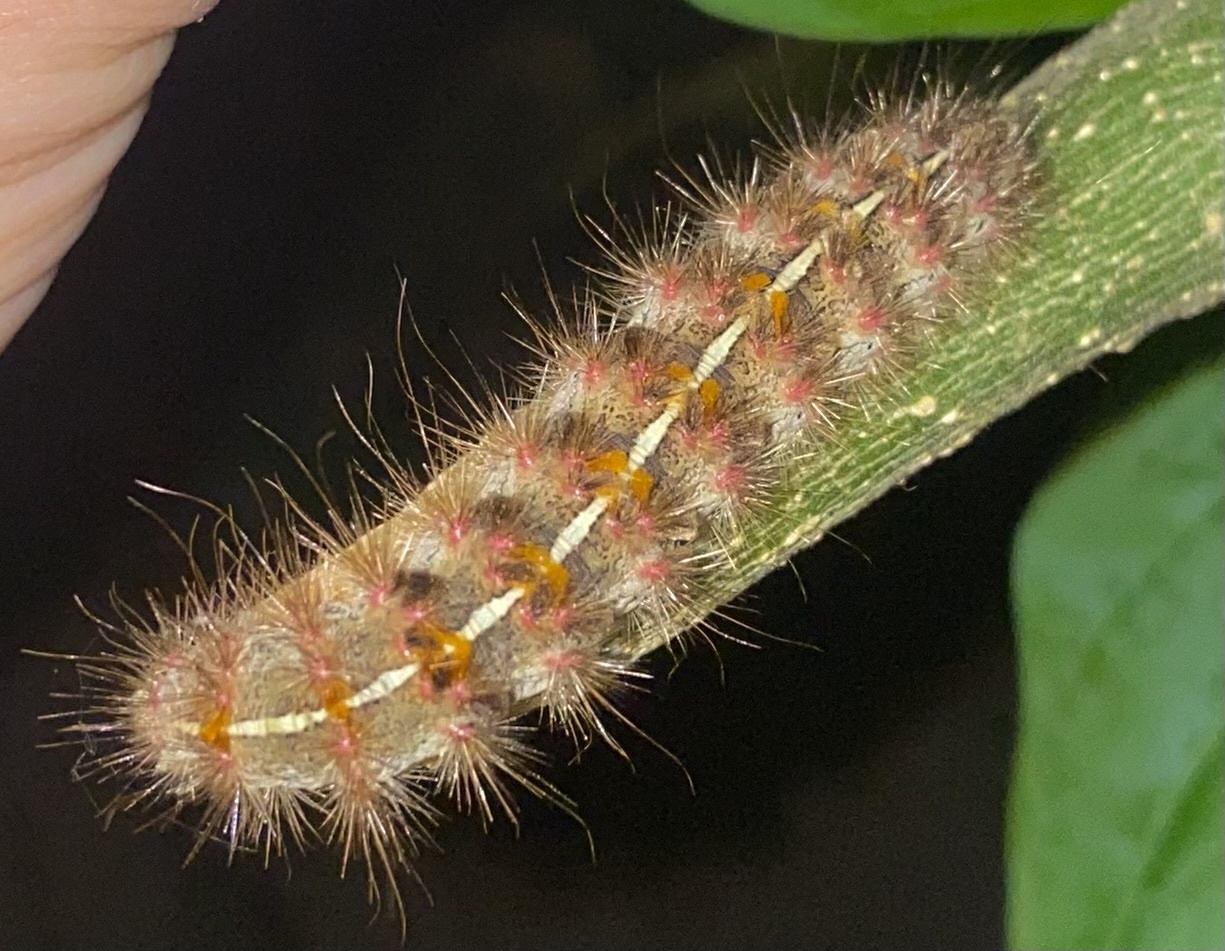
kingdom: Animalia
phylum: Arthropoda
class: Insecta
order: Lepidoptera
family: Erebidae
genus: Paracles
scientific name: Paracles fusca
